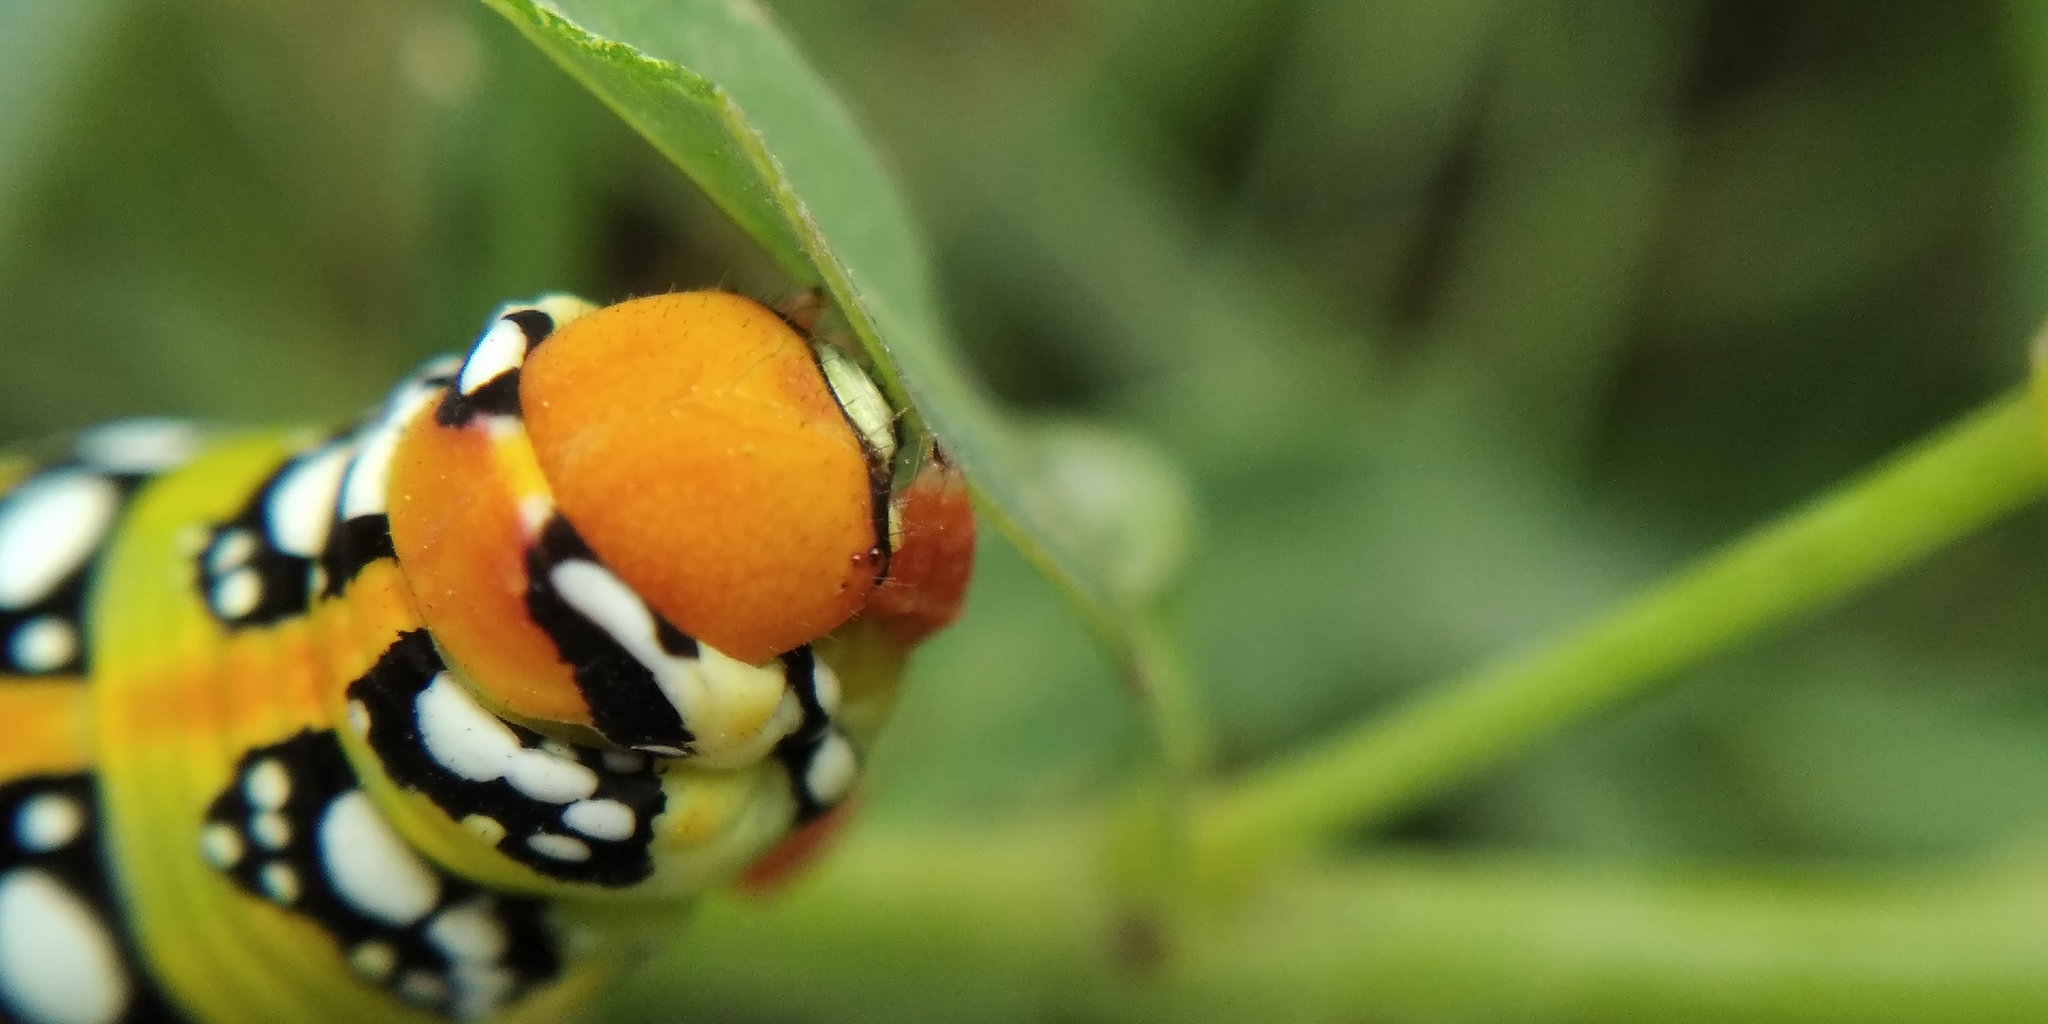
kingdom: Animalia
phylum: Arthropoda
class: Insecta
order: Lepidoptera
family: Sphingidae
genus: Hyles
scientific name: Hyles euphorbiae
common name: Spurge hawk-moth
